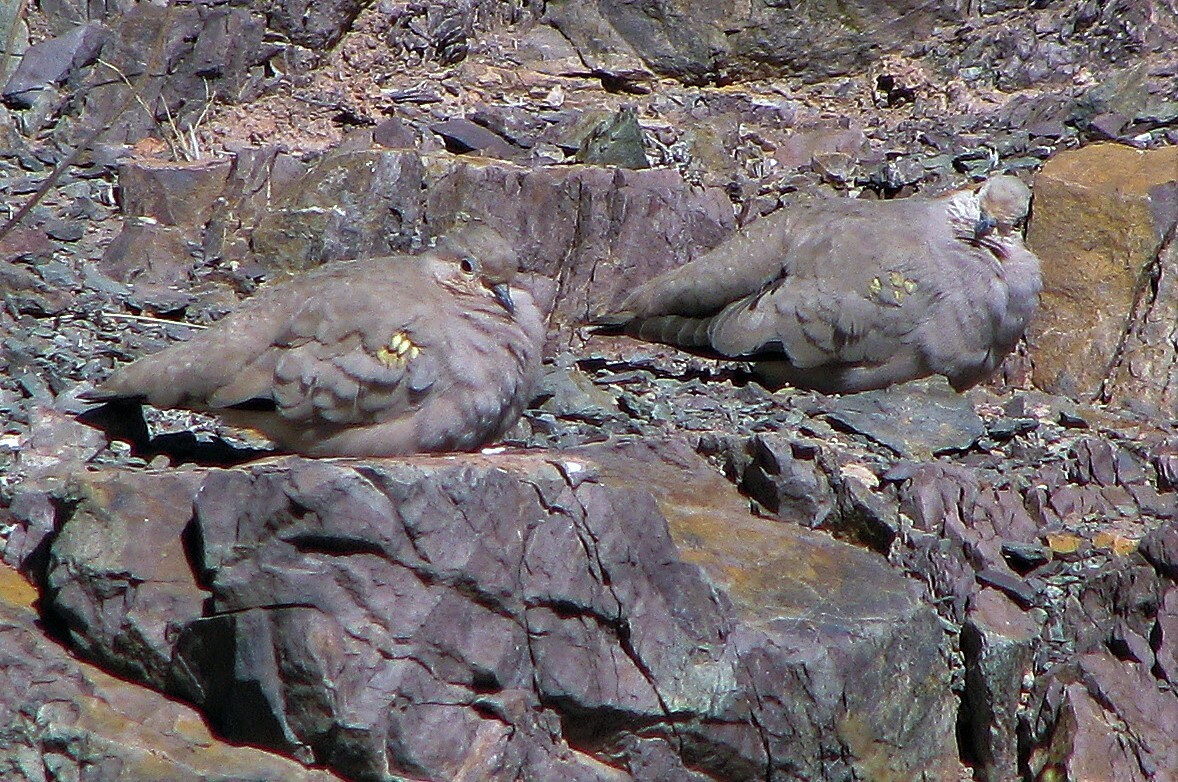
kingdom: Animalia
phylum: Chordata
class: Aves
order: Columbiformes
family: Columbidae
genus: Metriopelia
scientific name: Metriopelia aymara
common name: Golden-spotted ground dove
